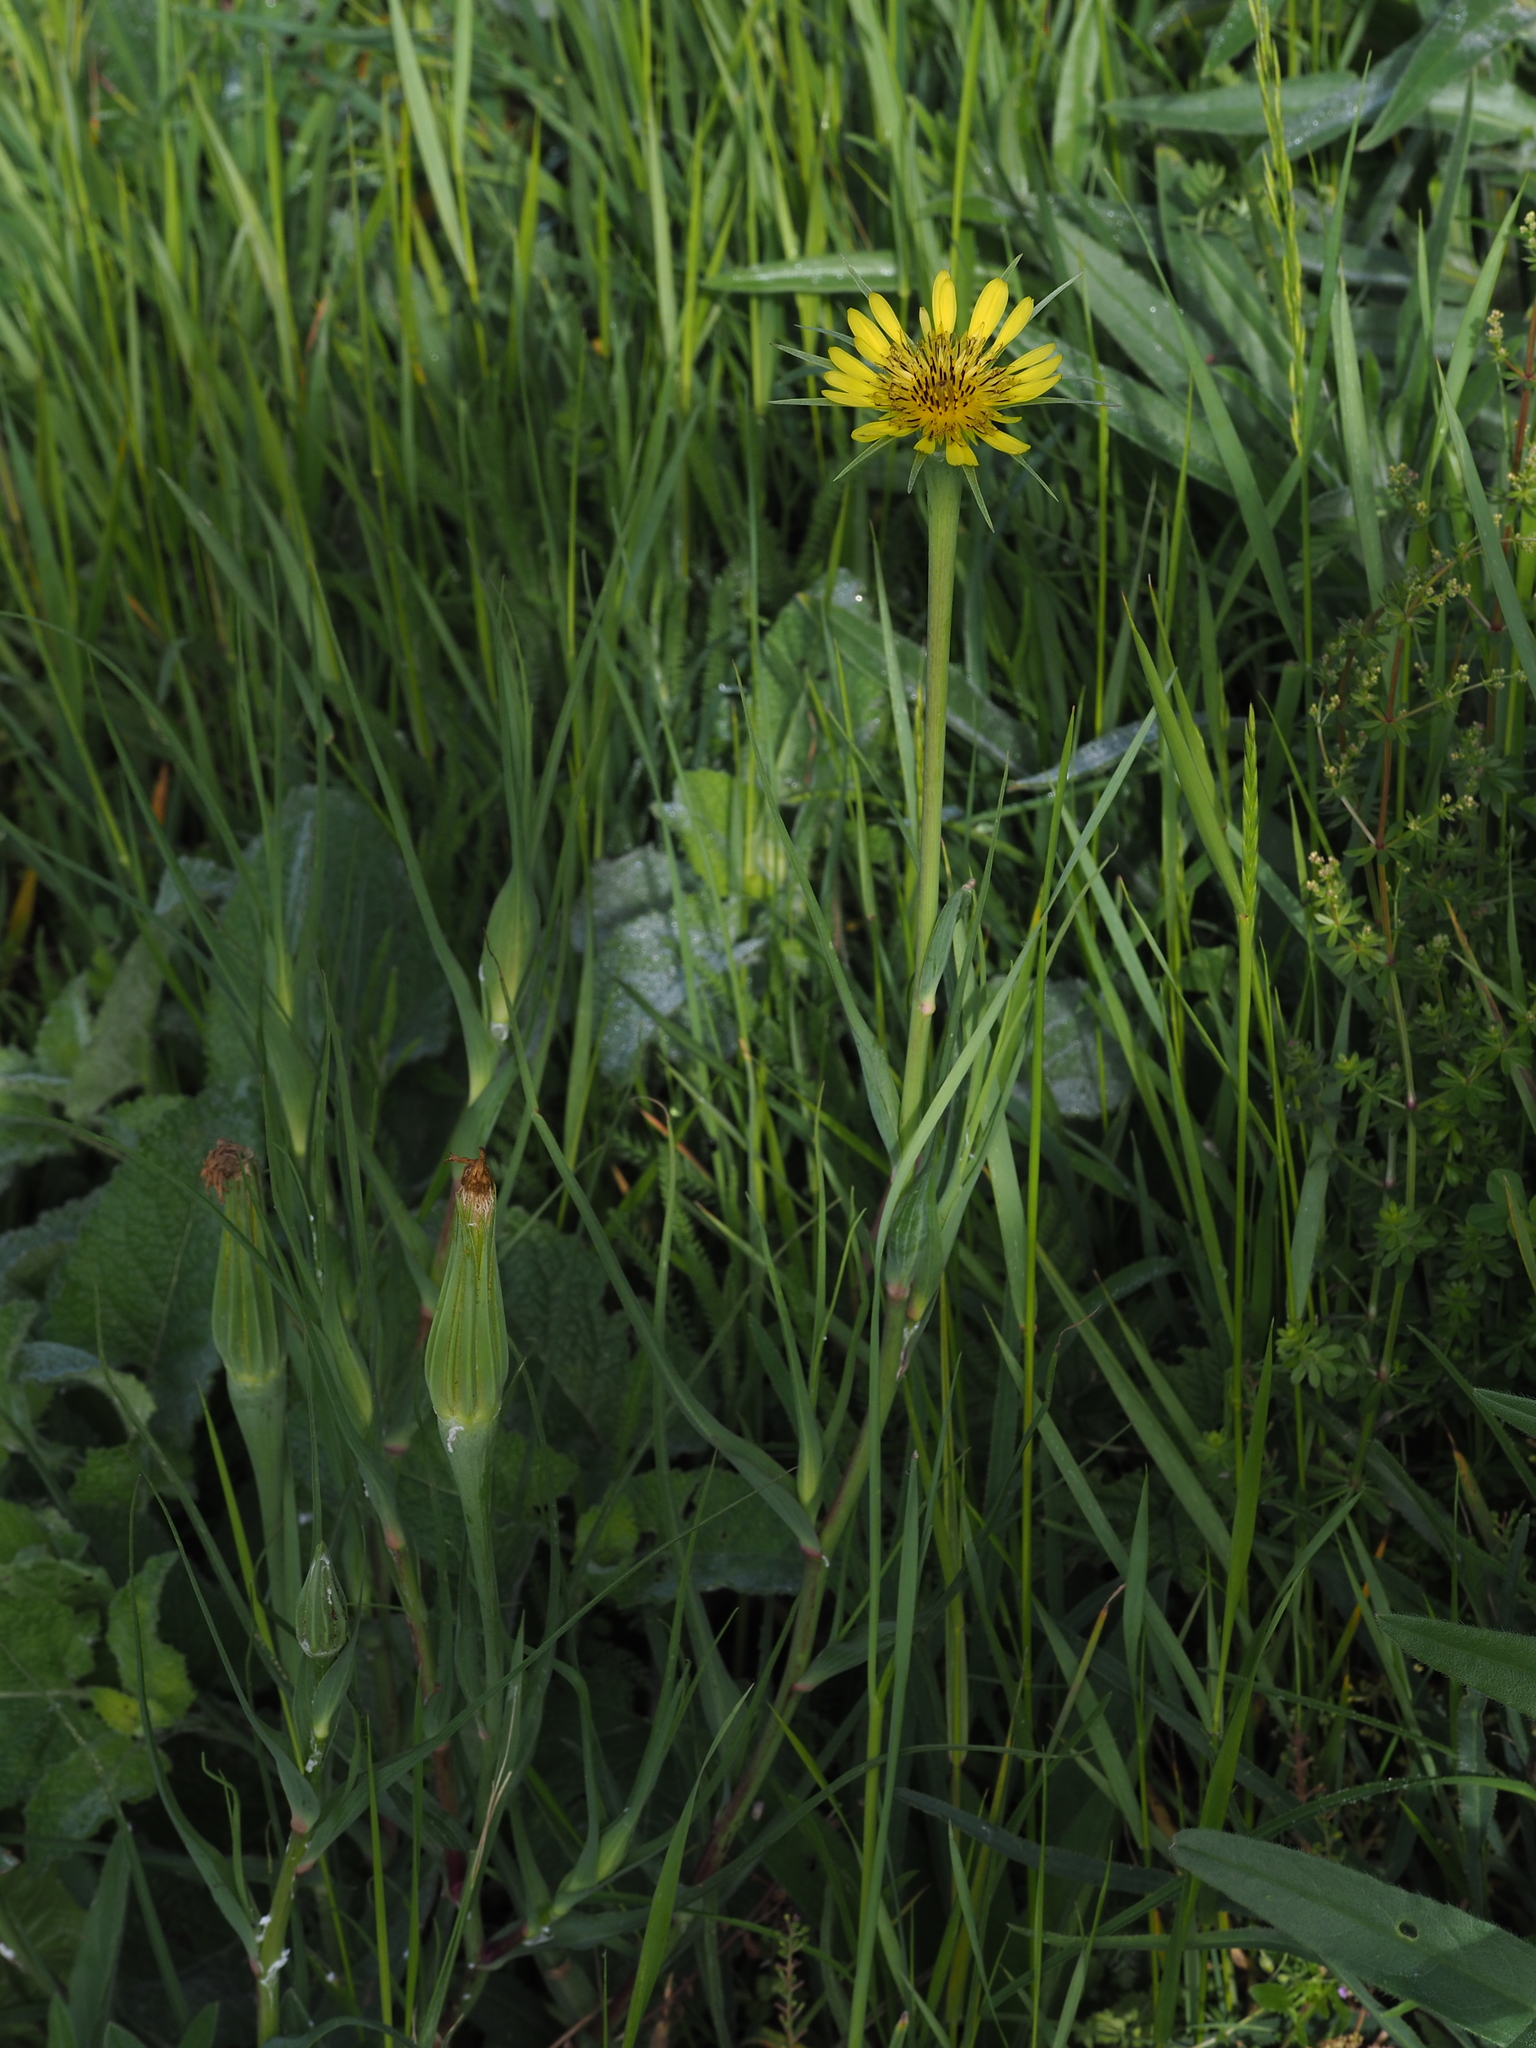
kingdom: Plantae
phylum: Tracheophyta
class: Magnoliopsida
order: Asterales
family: Asteraceae
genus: Tragopogon
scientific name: Tragopogon dubius
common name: Yellow salsify
